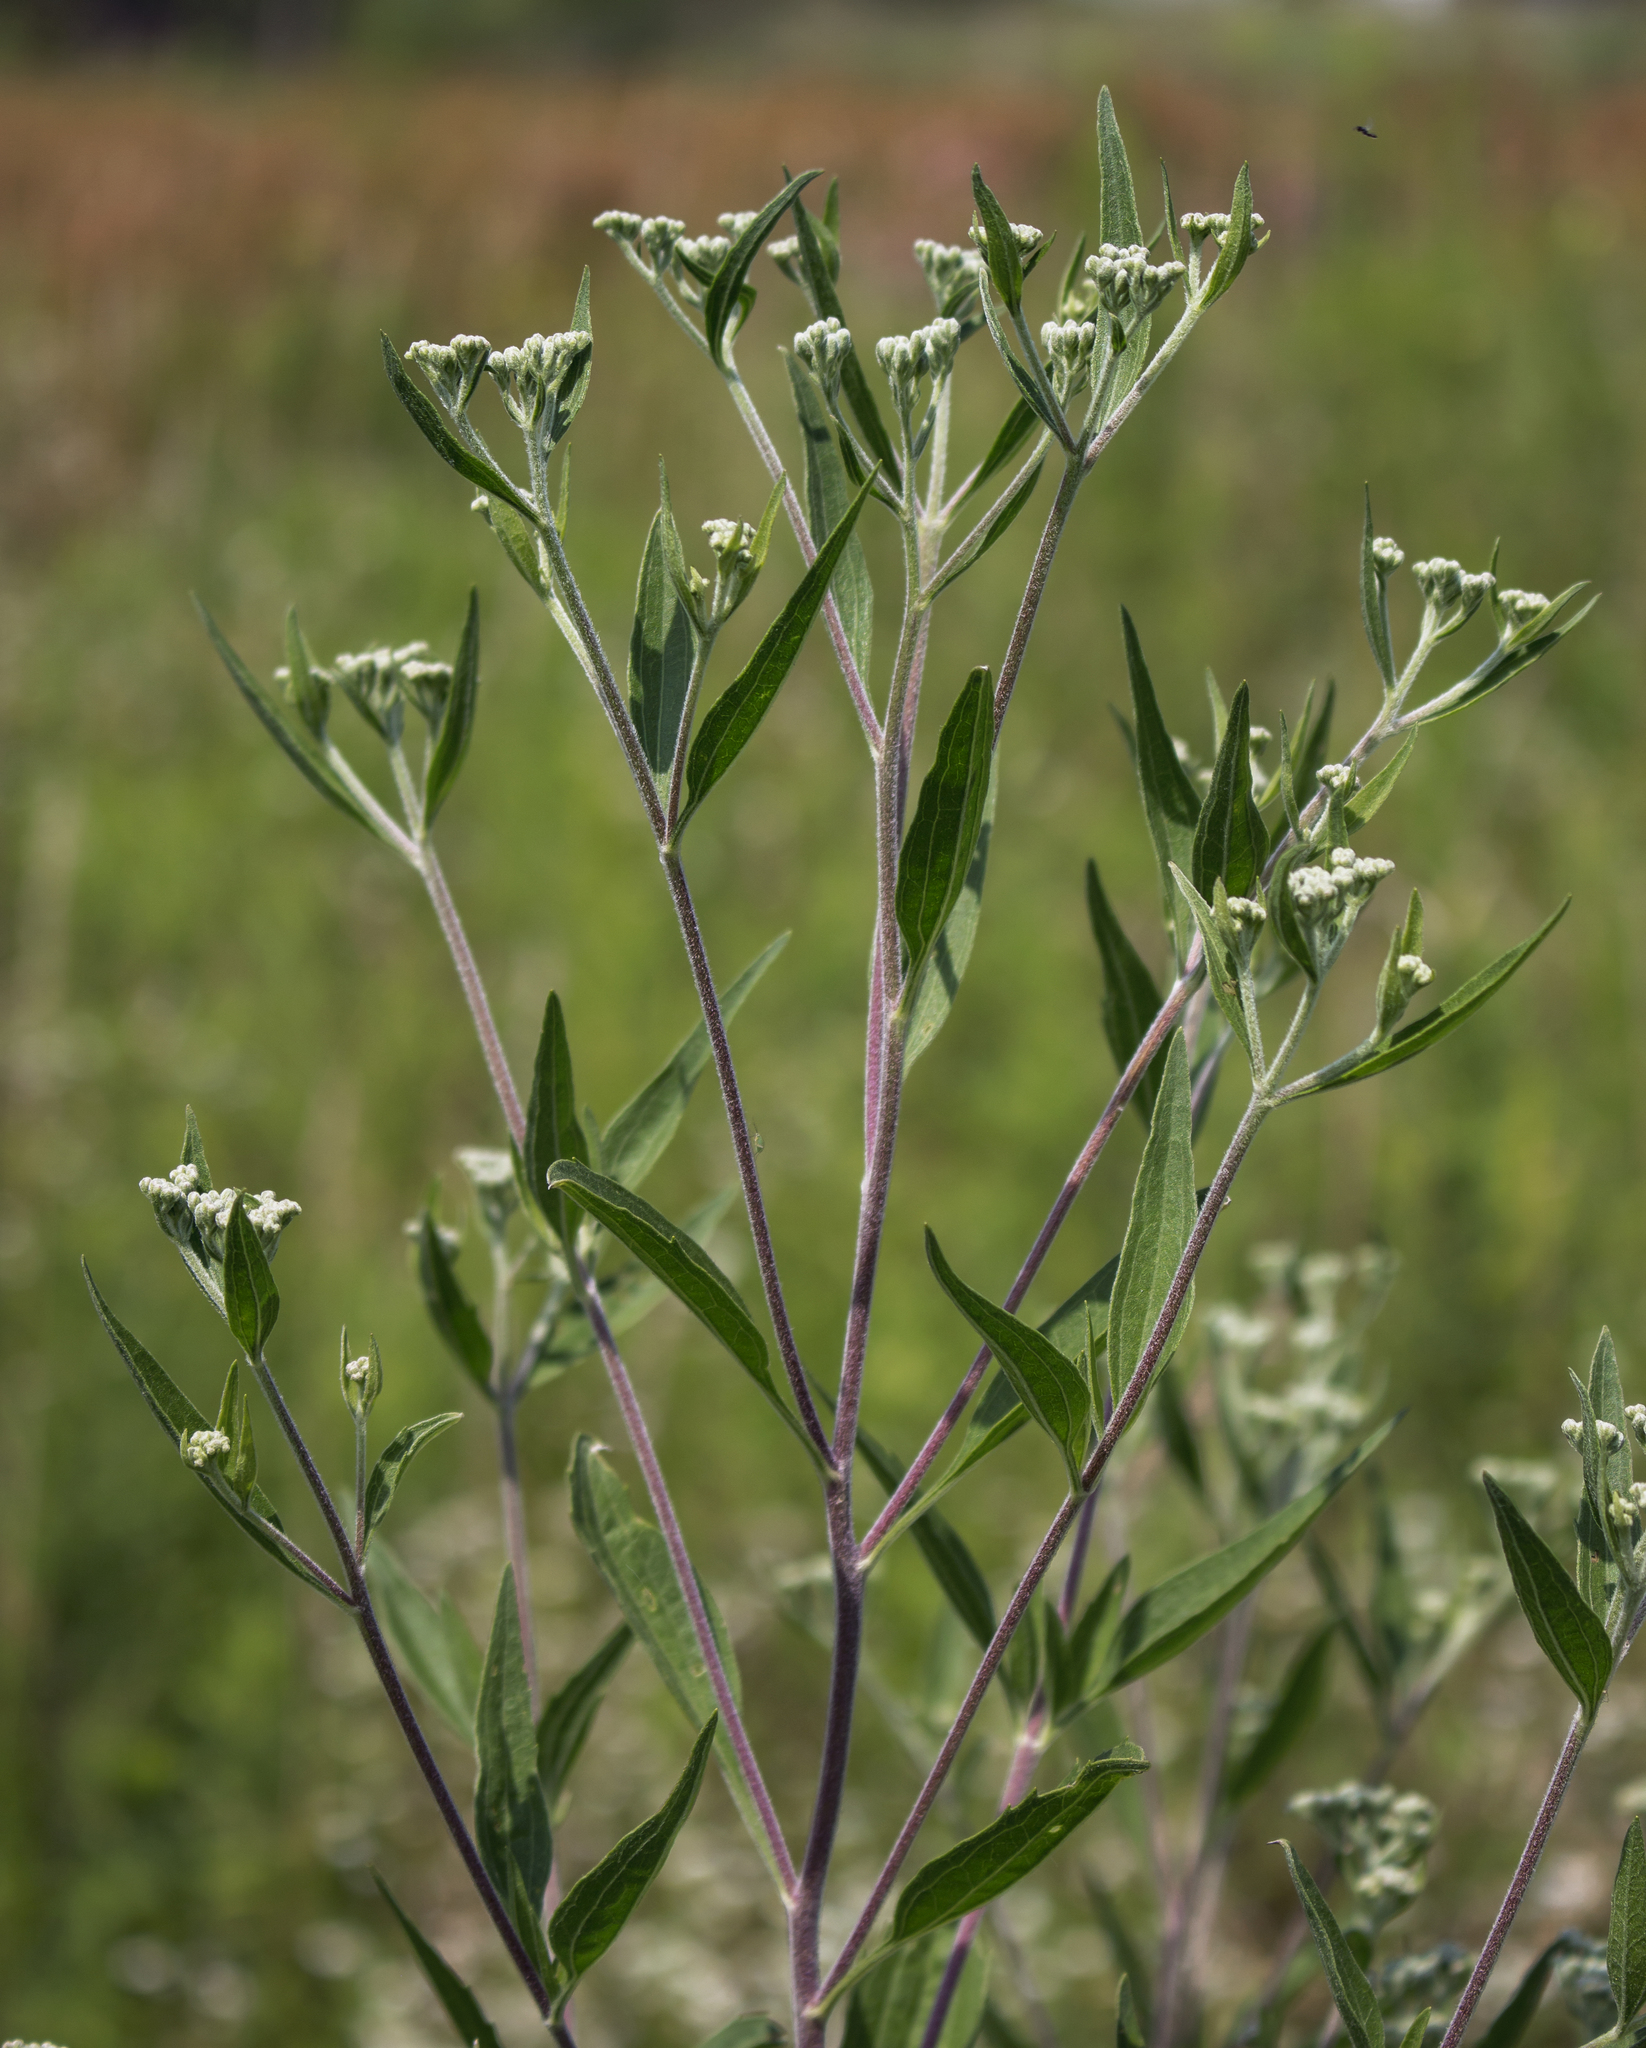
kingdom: Plantae
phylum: Tracheophyta
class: Magnoliopsida
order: Asterales
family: Asteraceae
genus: Eupatorium
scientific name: Eupatorium altissimum
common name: Tall thoroughwort
